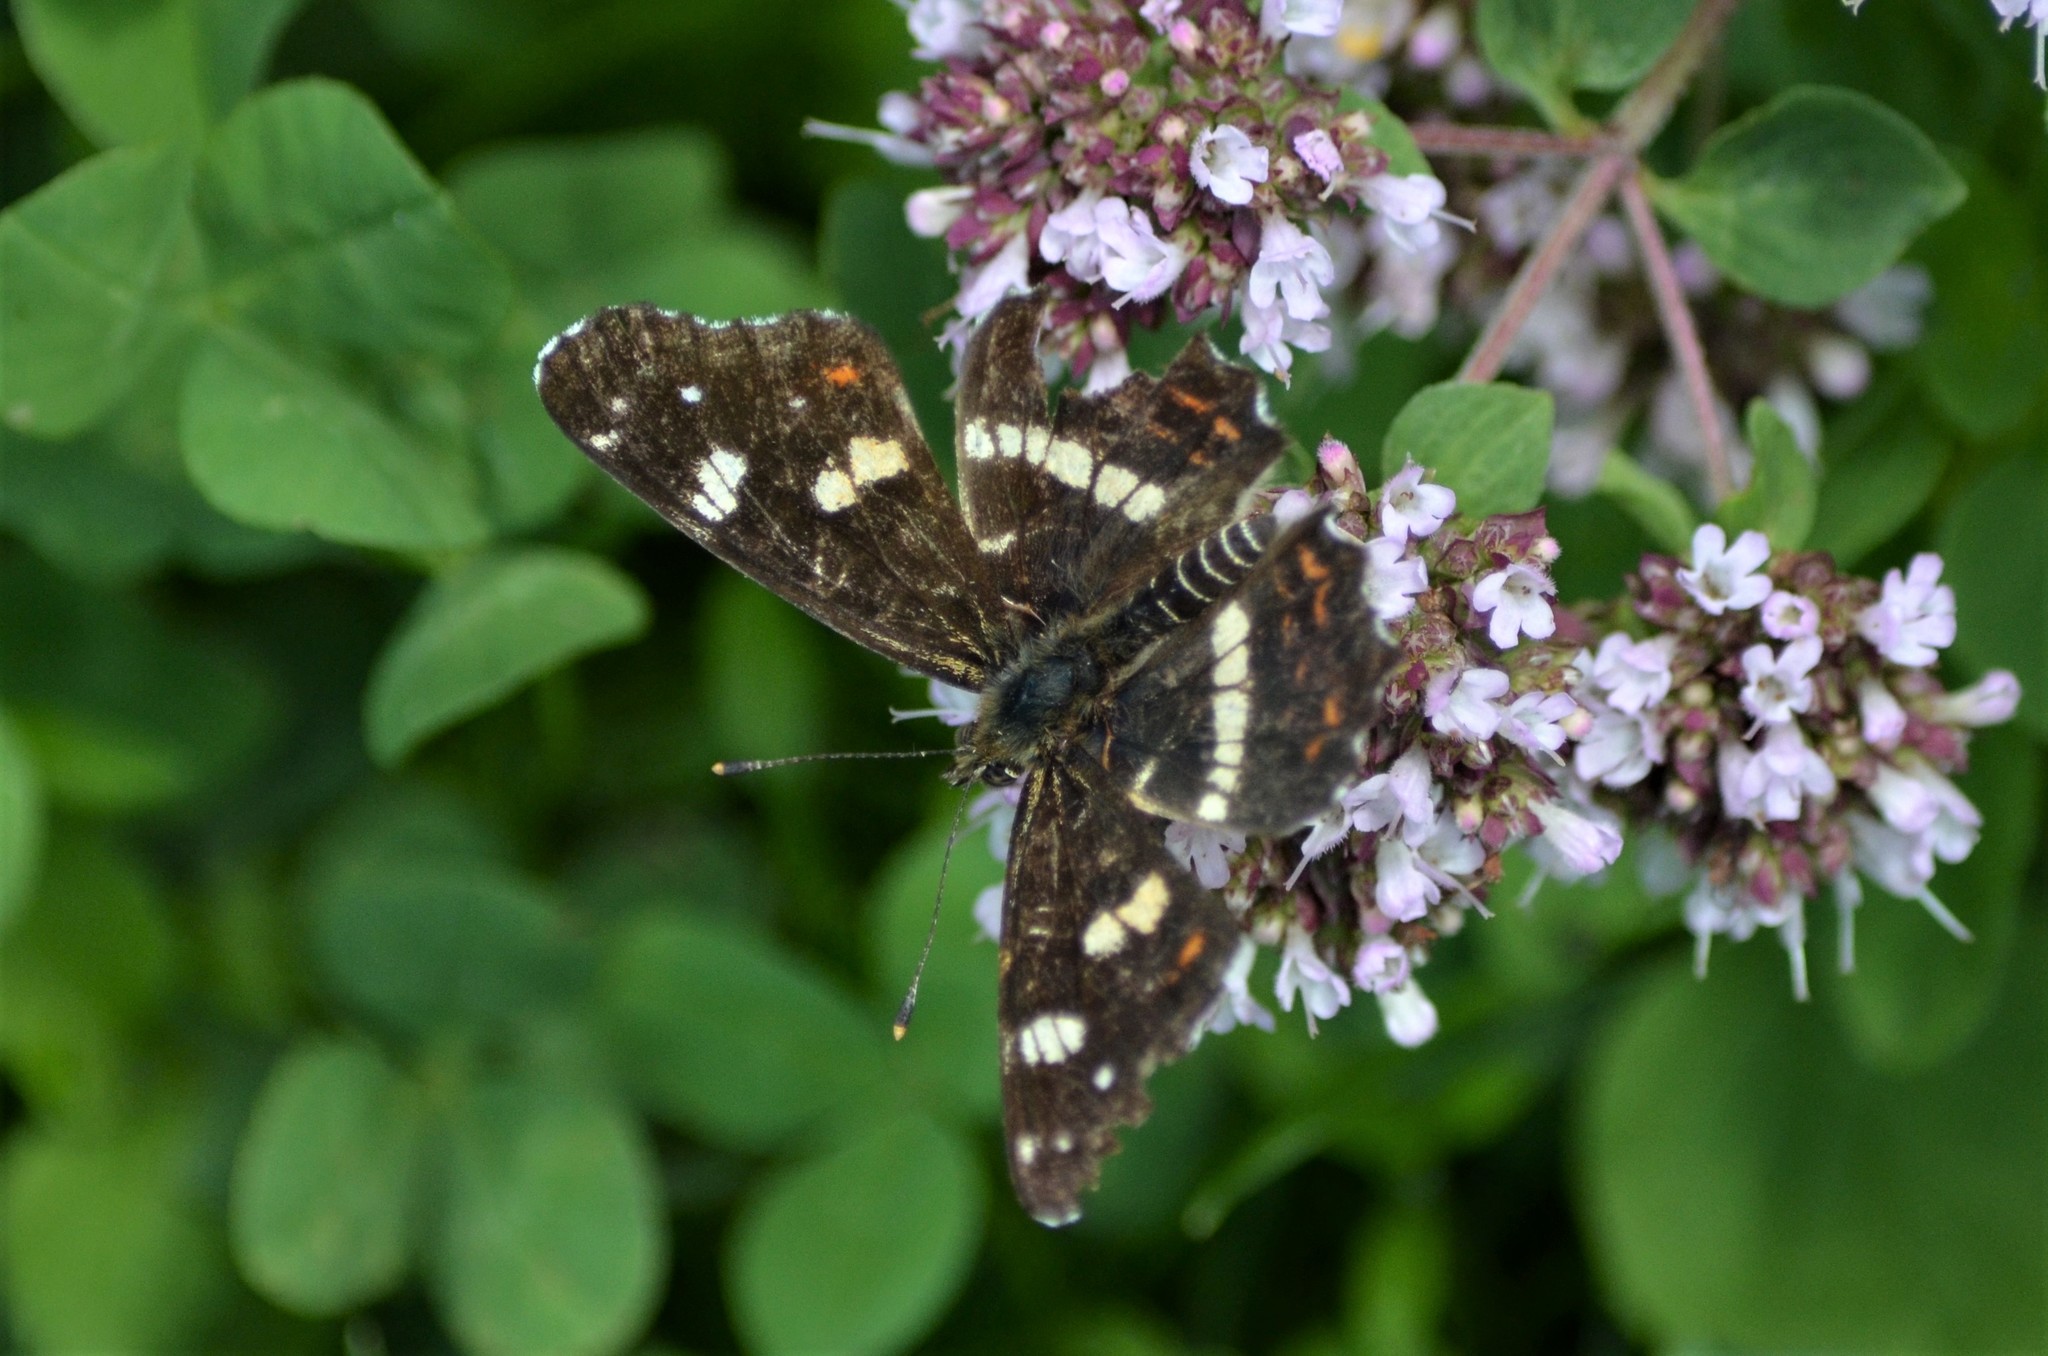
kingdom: Animalia
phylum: Arthropoda
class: Insecta
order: Lepidoptera
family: Nymphalidae
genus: Araschnia
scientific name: Araschnia levana
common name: Map butterfly
